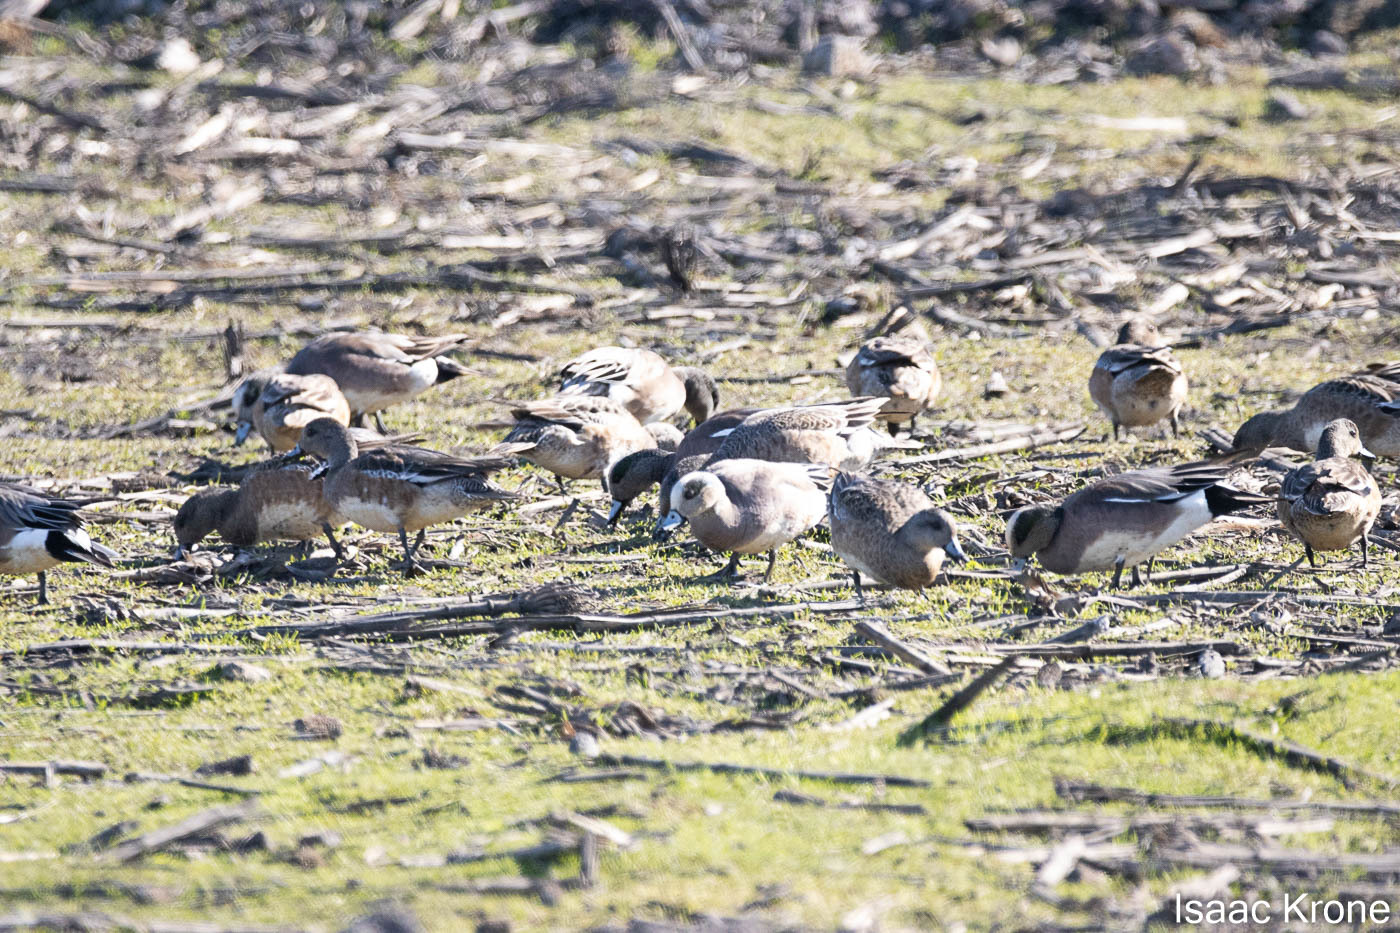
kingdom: Animalia
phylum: Chordata
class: Aves
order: Anseriformes
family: Anatidae
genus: Mareca
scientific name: Mareca americana
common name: American wigeon
